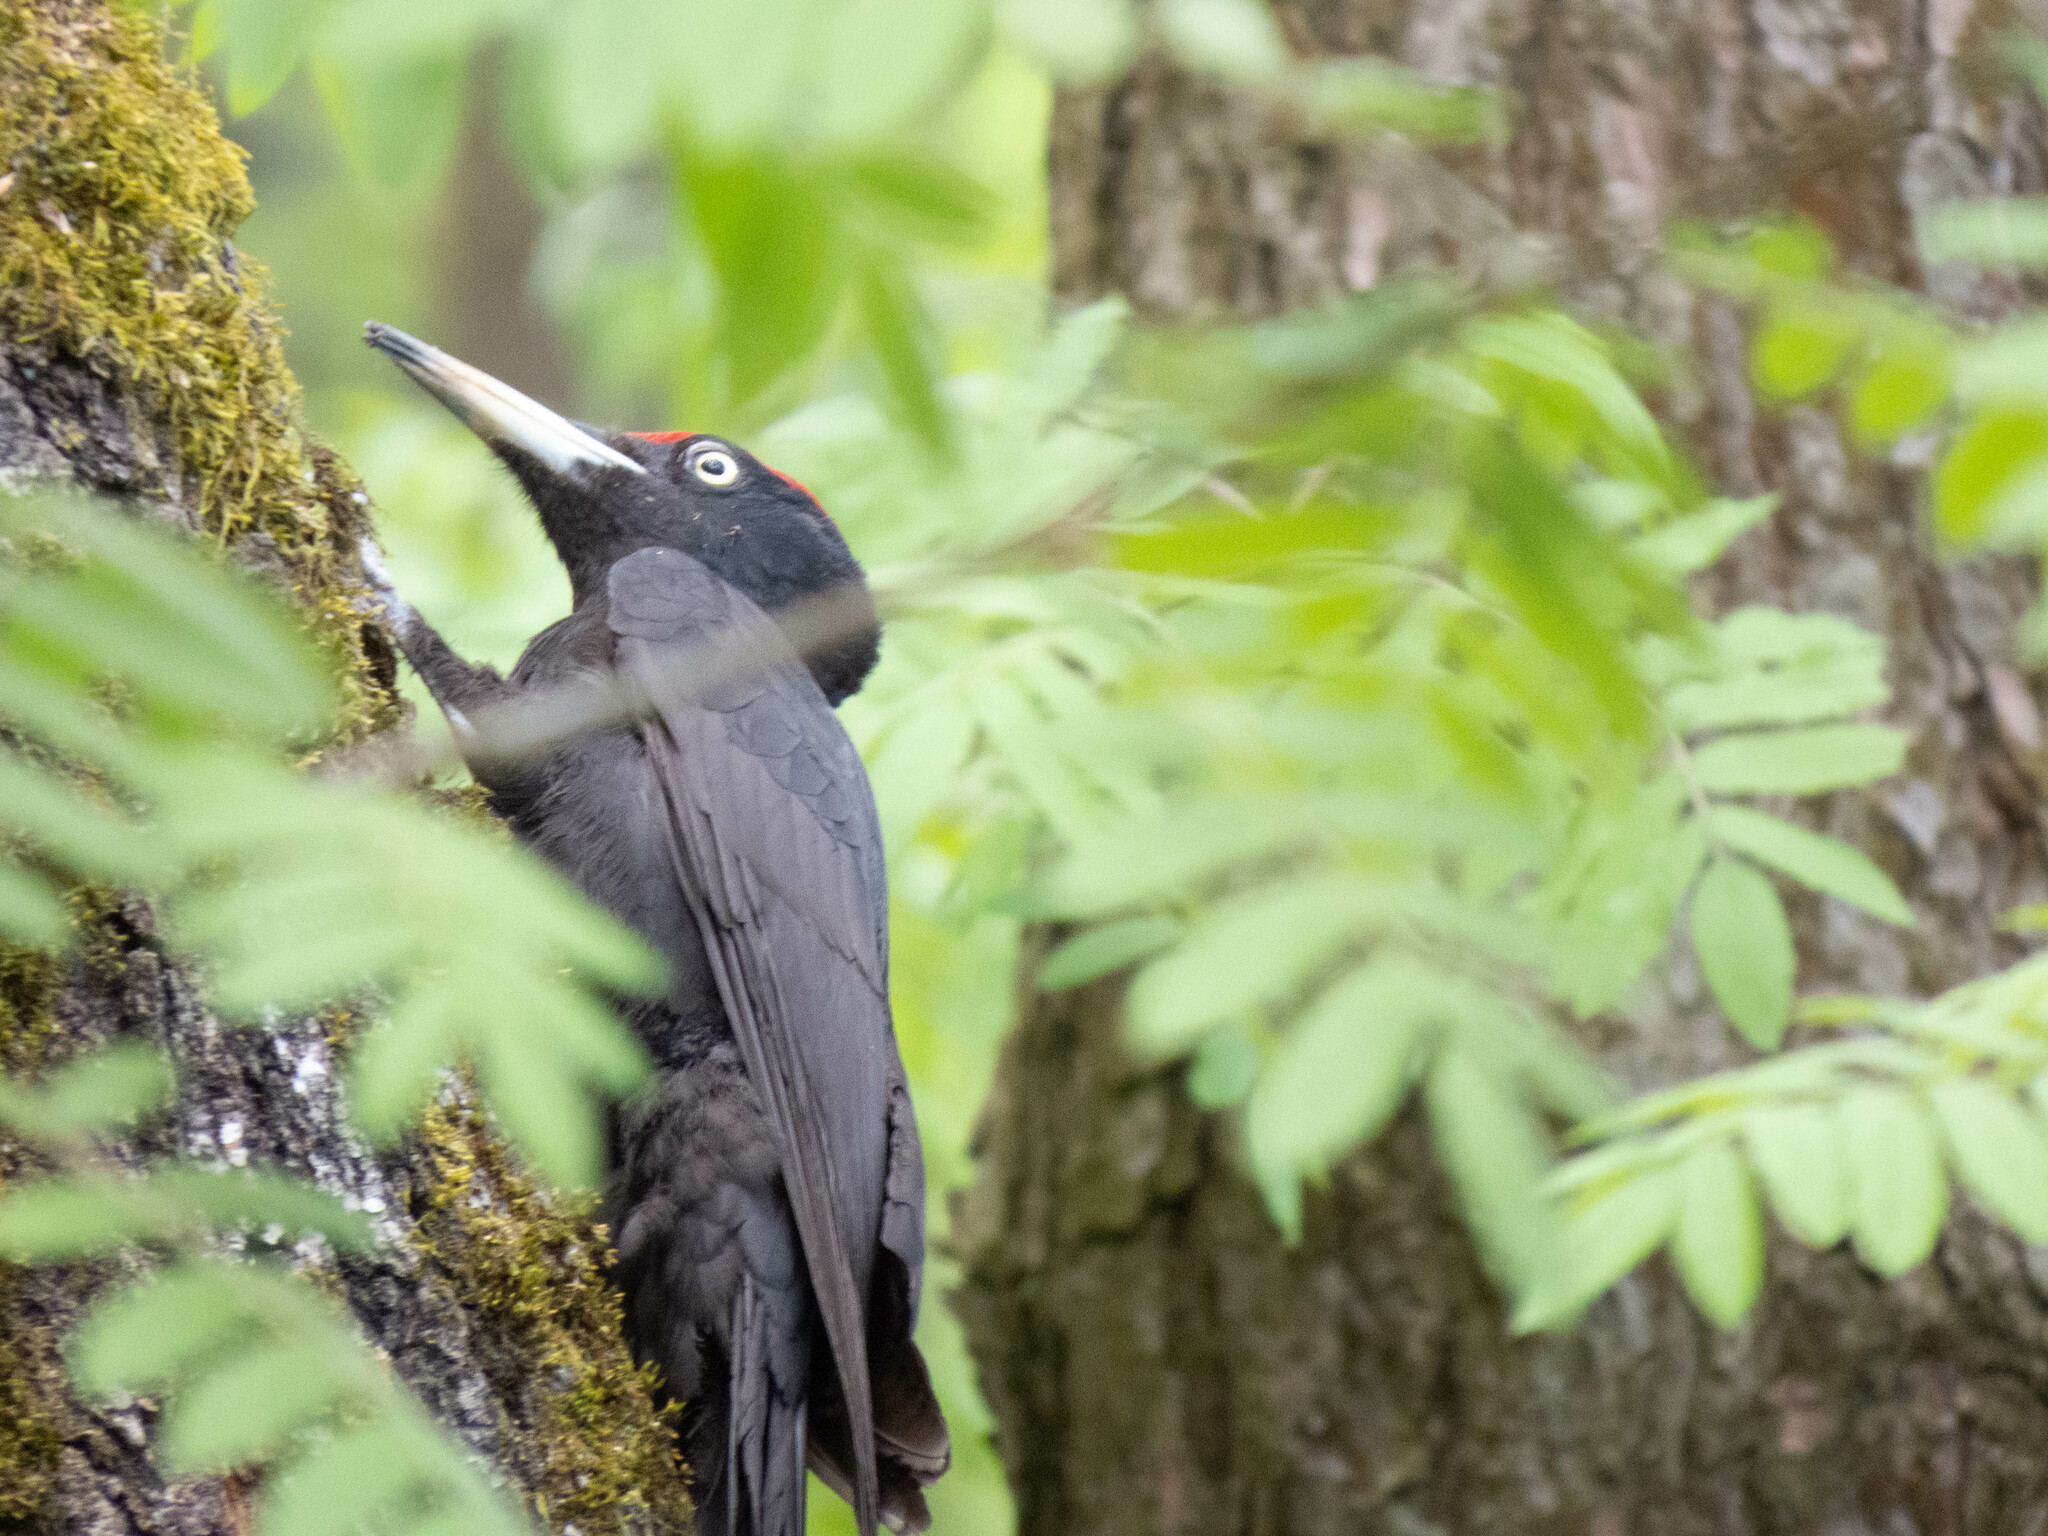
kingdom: Animalia
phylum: Chordata
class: Aves
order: Piciformes
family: Picidae
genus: Dryocopus
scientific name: Dryocopus martius
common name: Black woodpecker
